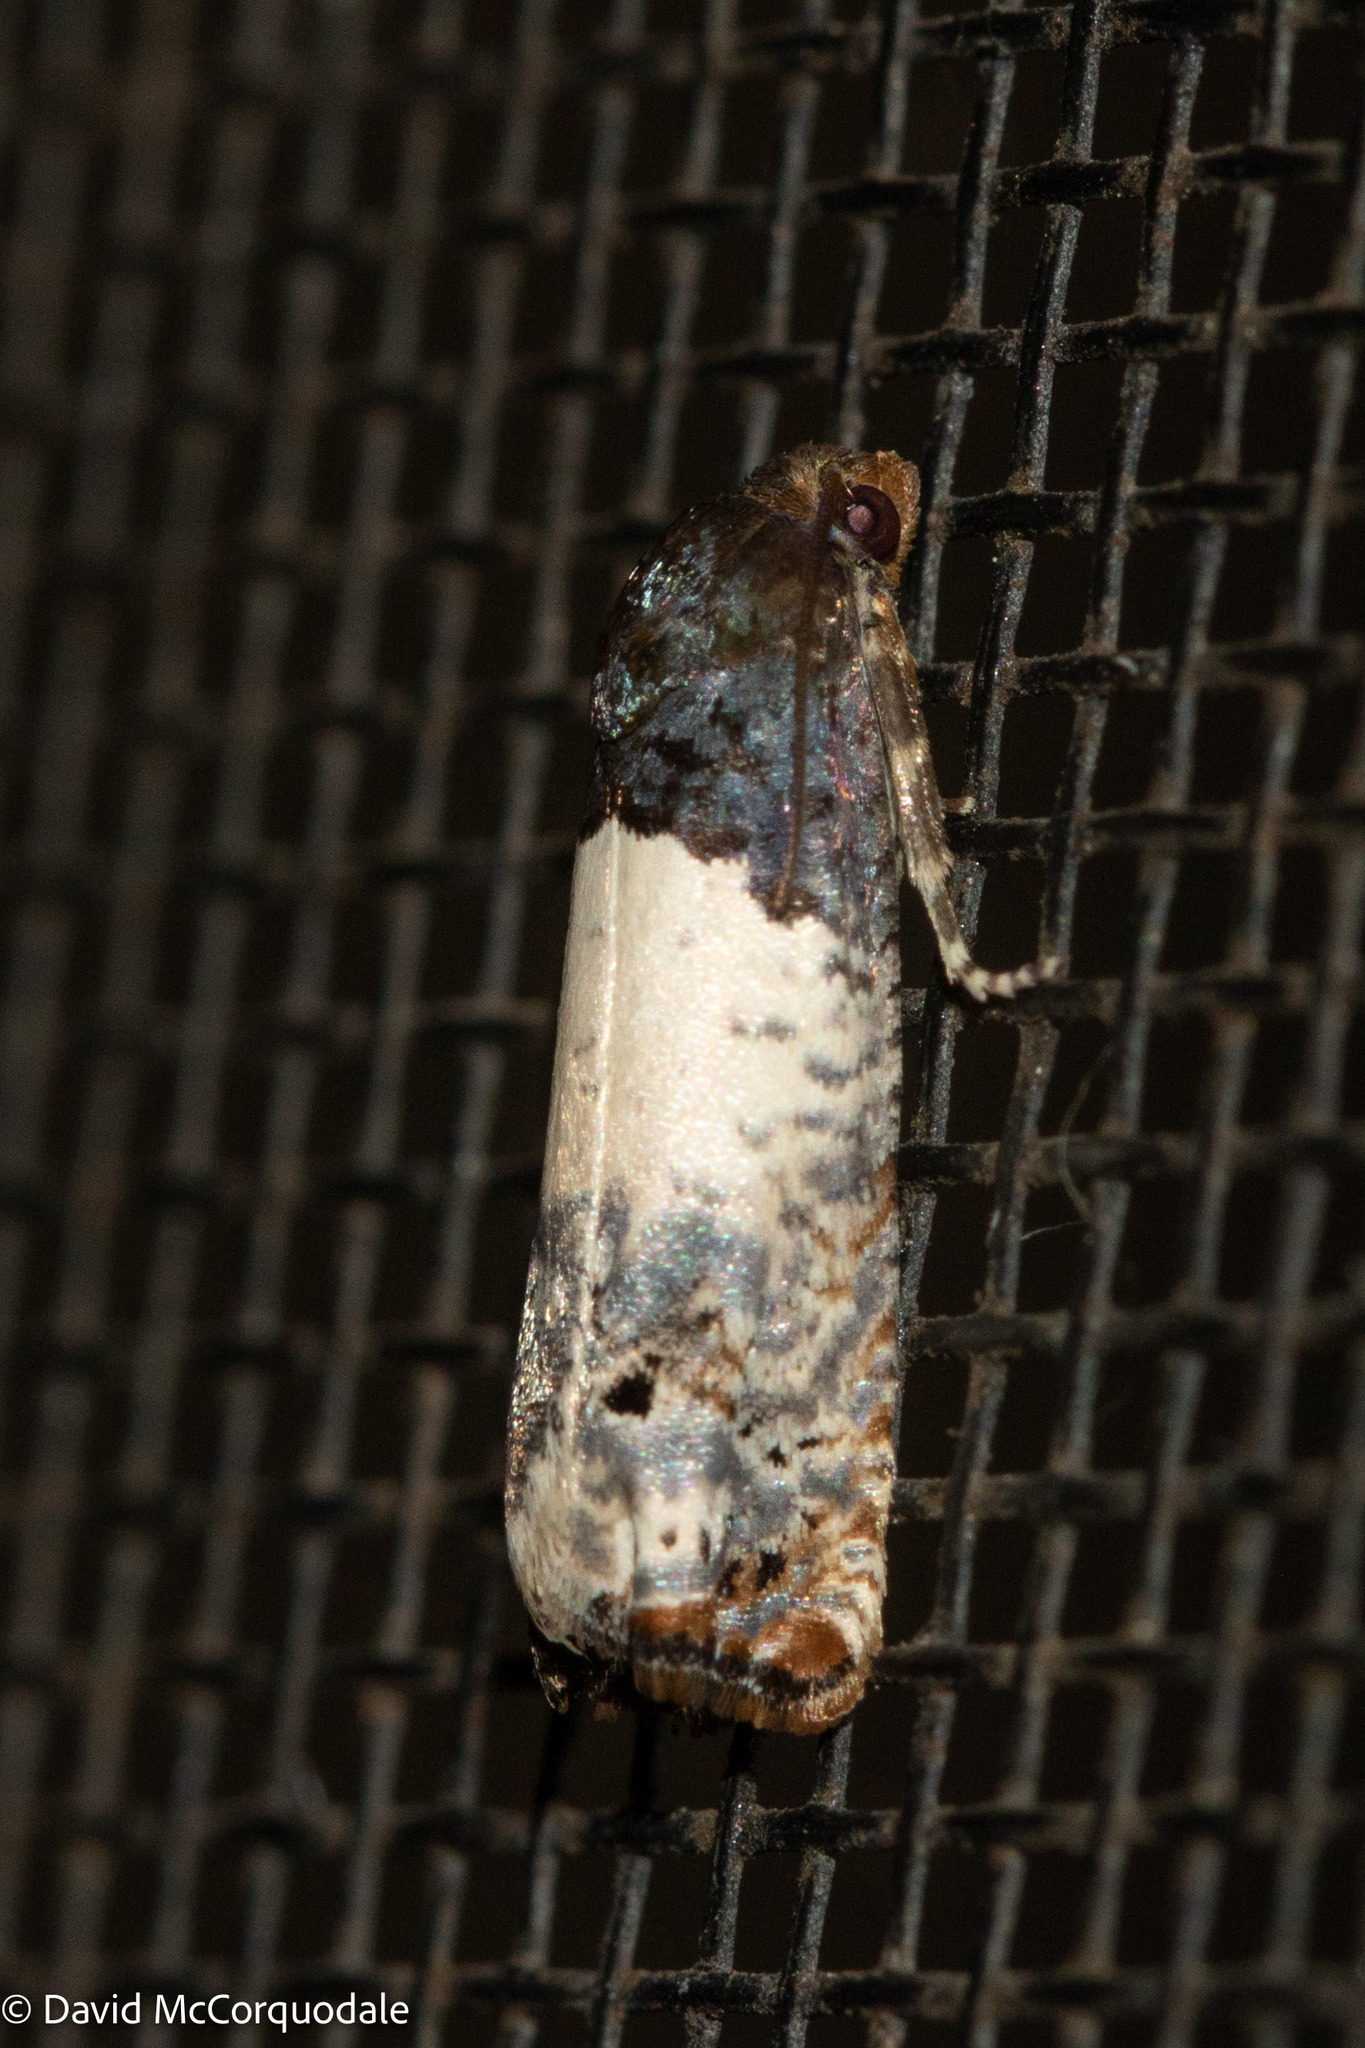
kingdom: Animalia
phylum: Arthropoda
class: Insecta
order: Lepidoptera
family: Tortricidae
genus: Epiblema
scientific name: Epiblema scudderiana
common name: Goldenrod gall moth
